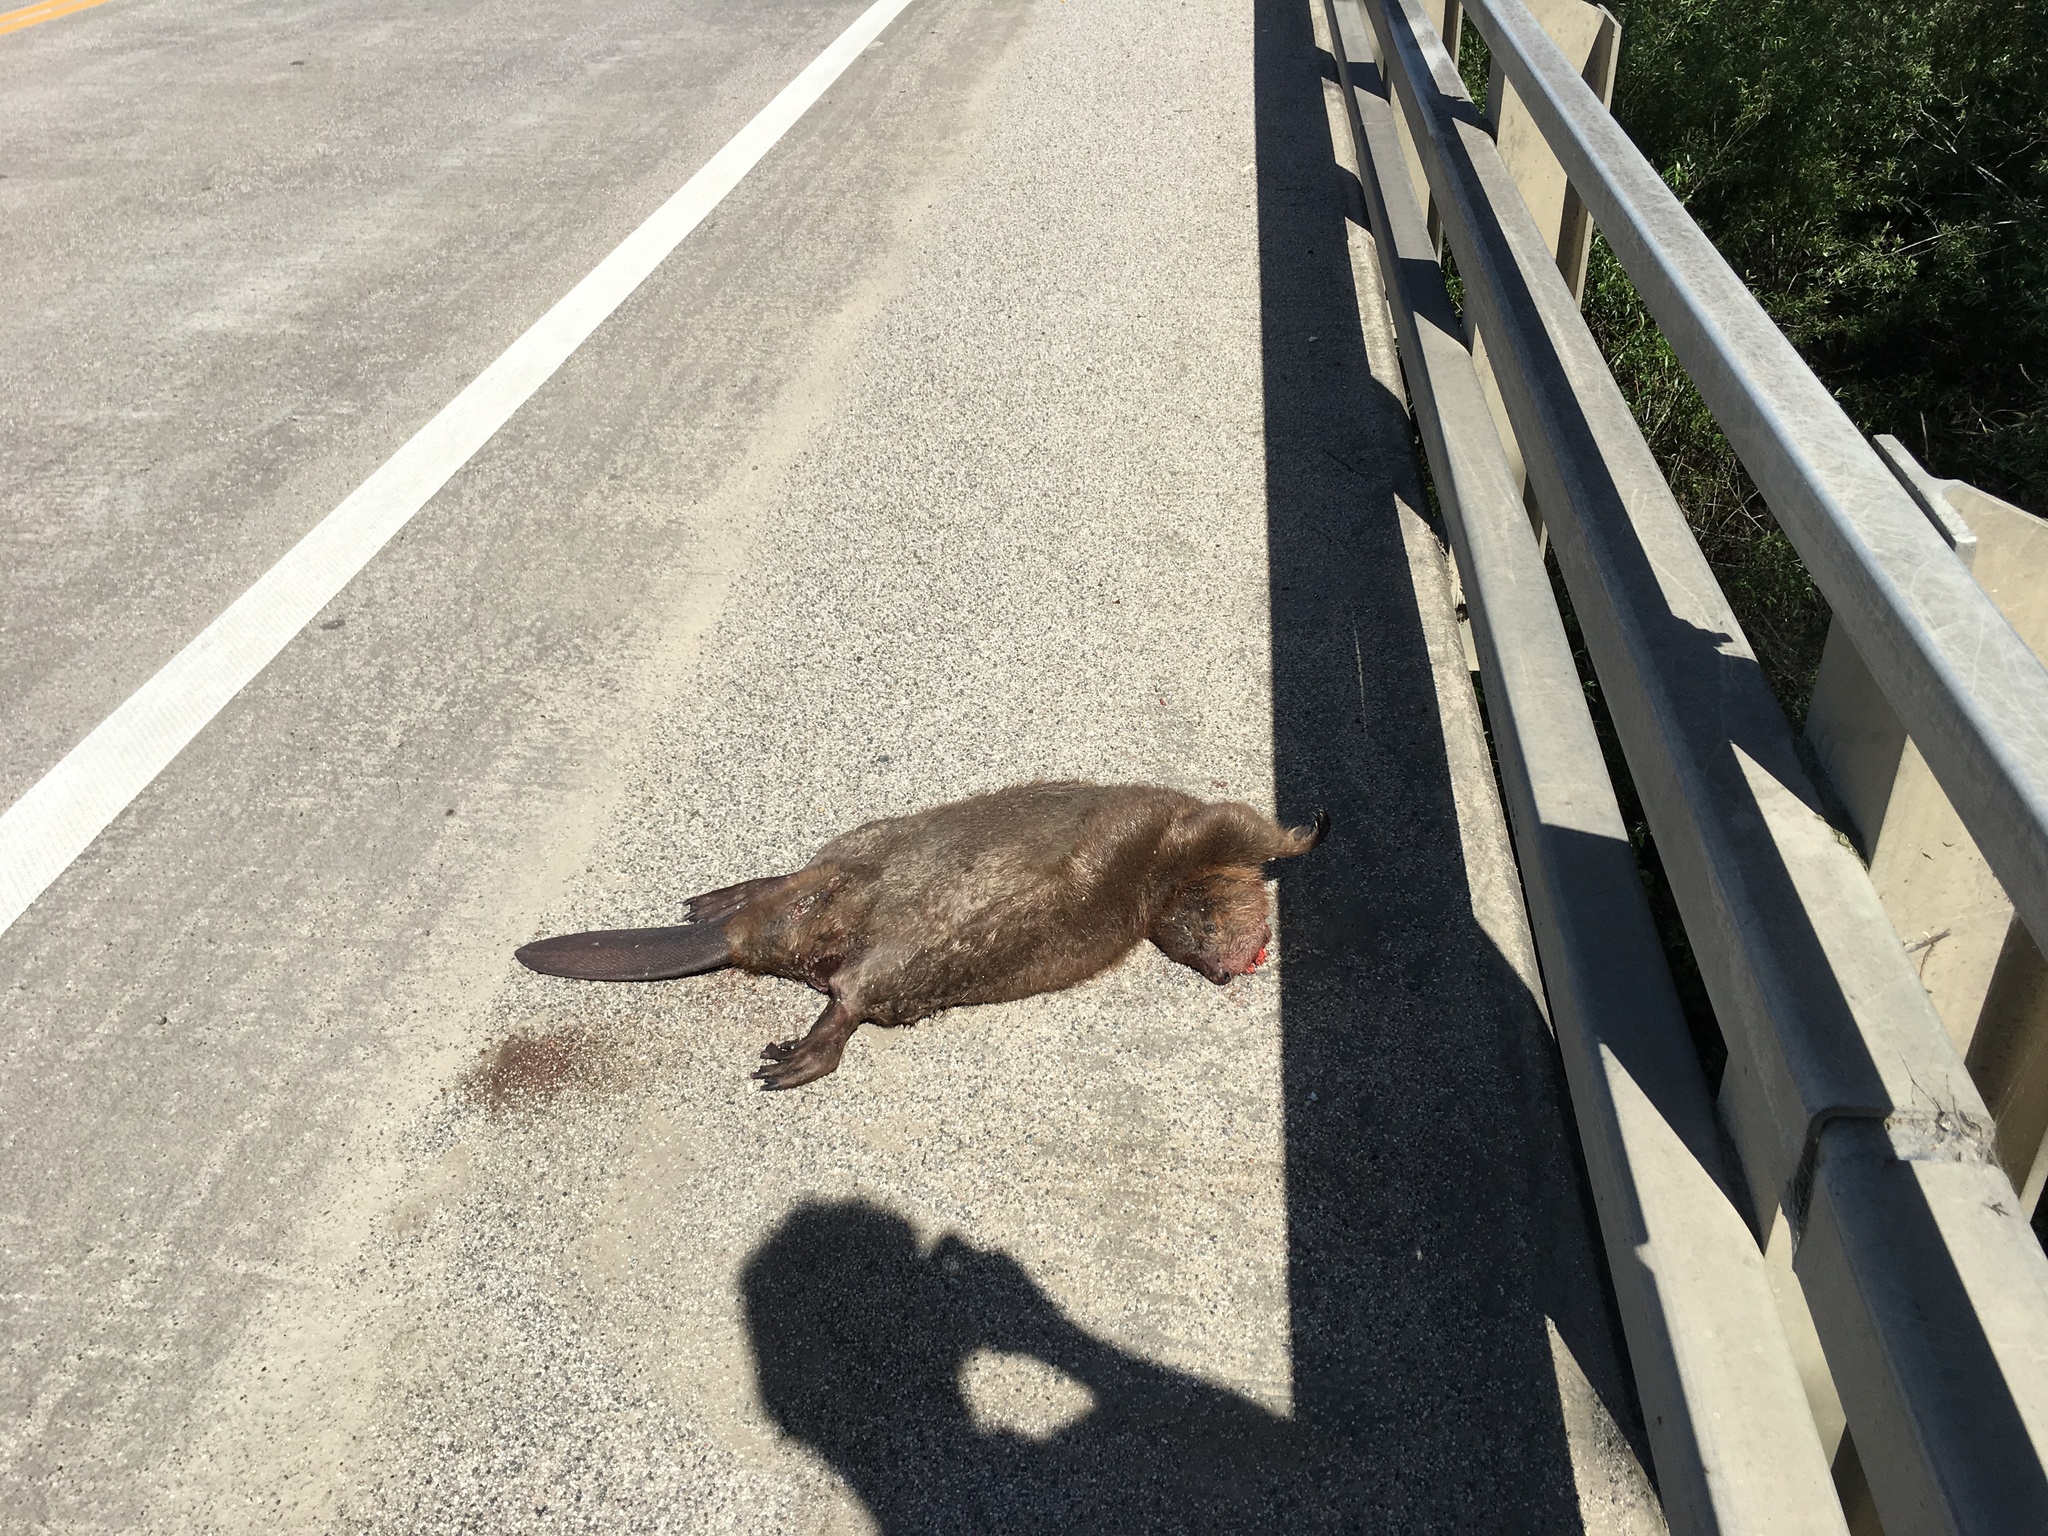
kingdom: Animalia
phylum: Chordata
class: Mammalia
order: Rodentia
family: Castoridae
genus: Castor
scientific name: Castor canadensis
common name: American beaver
